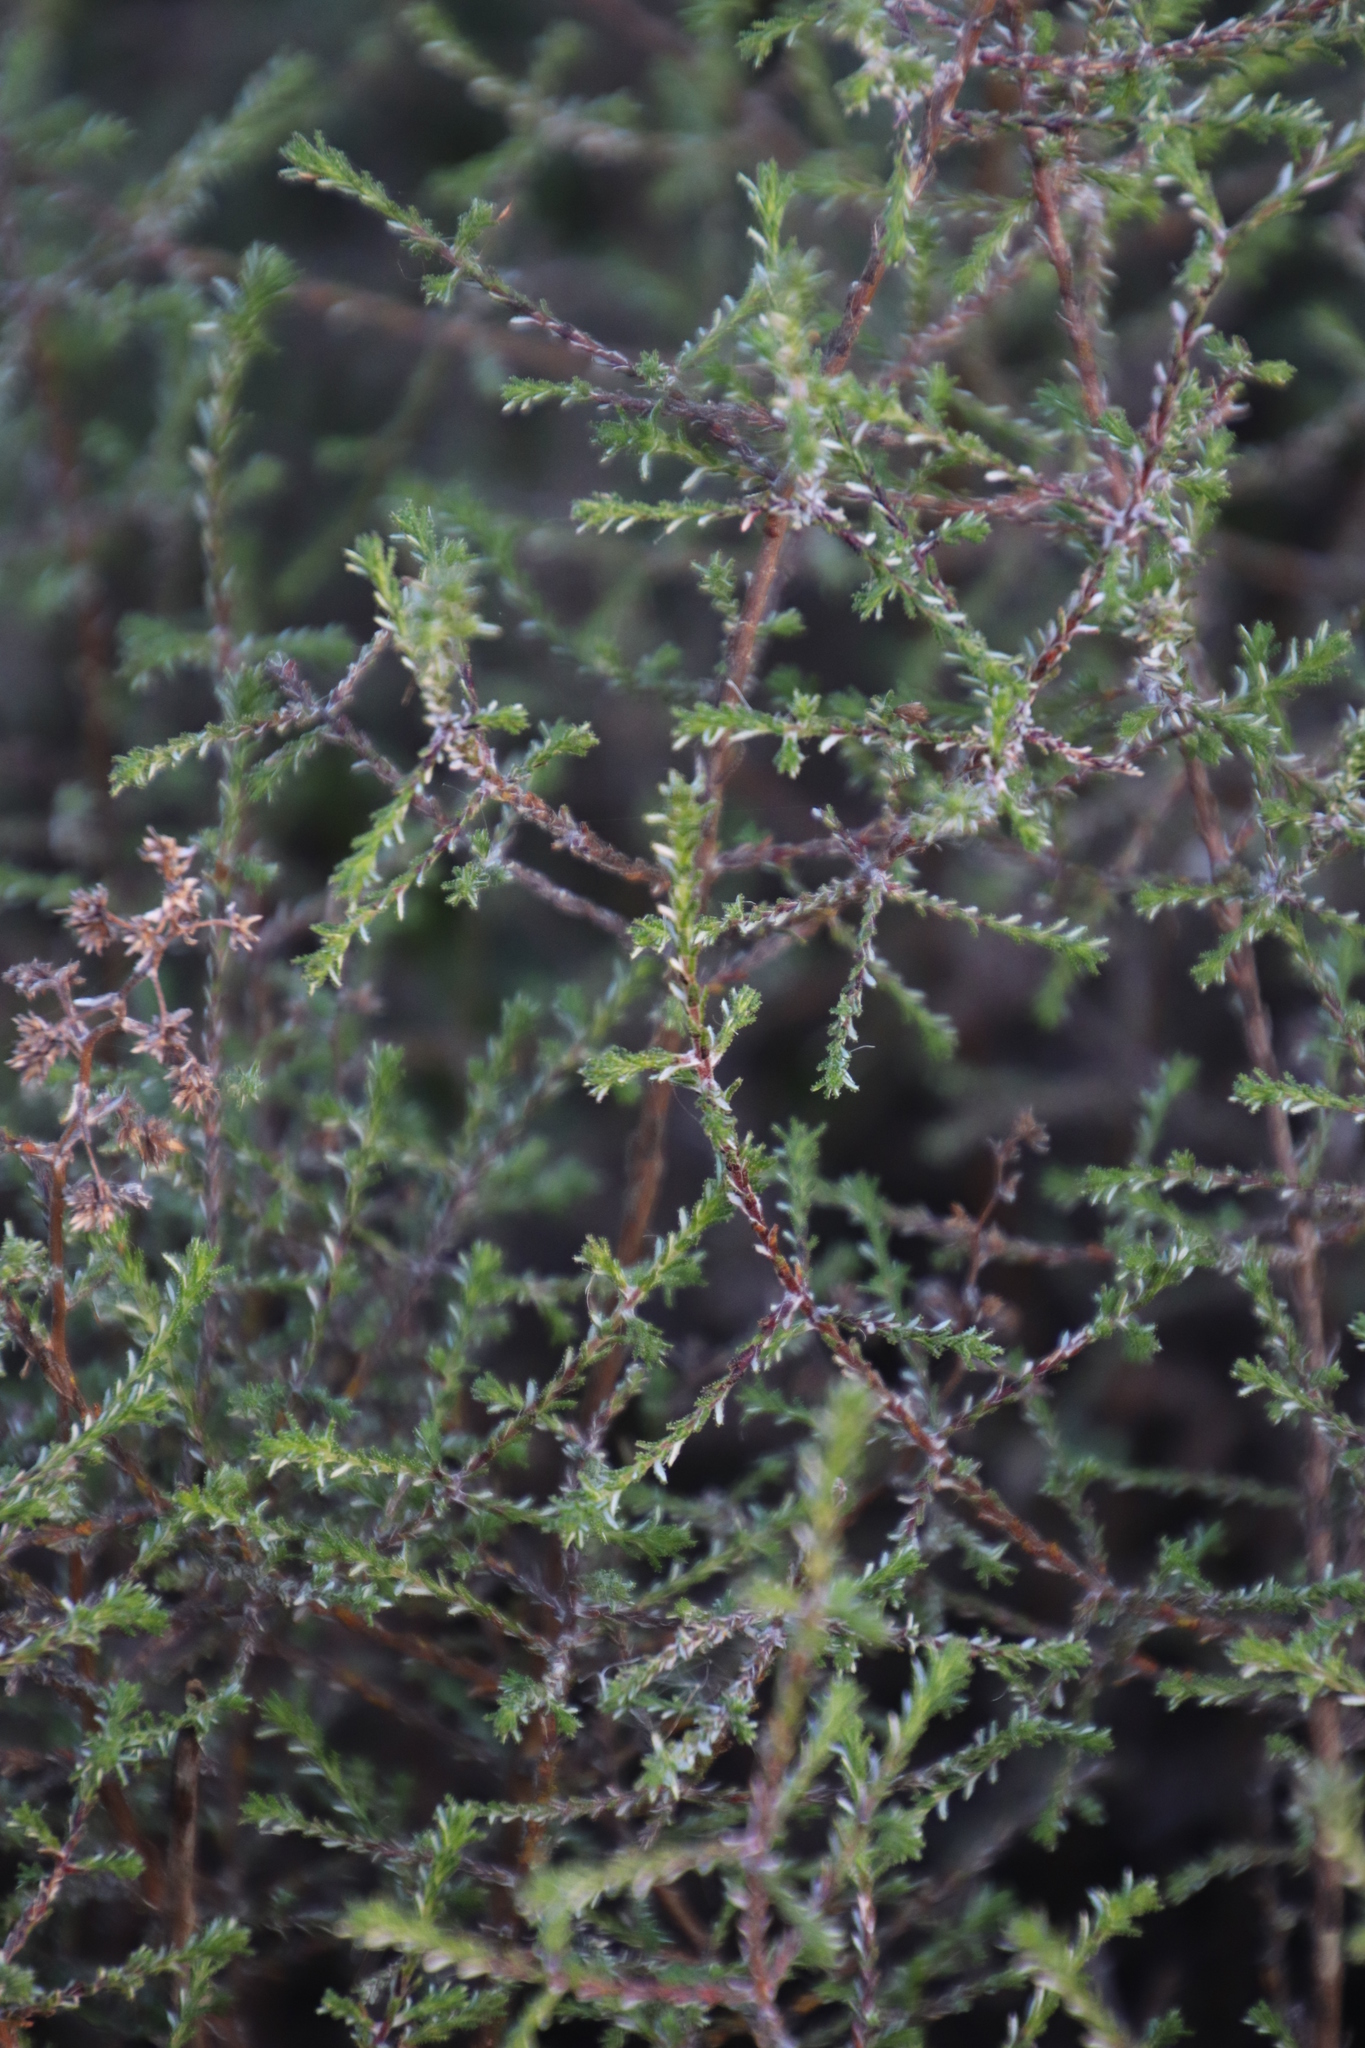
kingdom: Plantae
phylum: Tracheophyta
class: Magnoliopsida
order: Asterales
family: Asteraceae
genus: Myrovernix
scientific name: Myrovernix scaber
